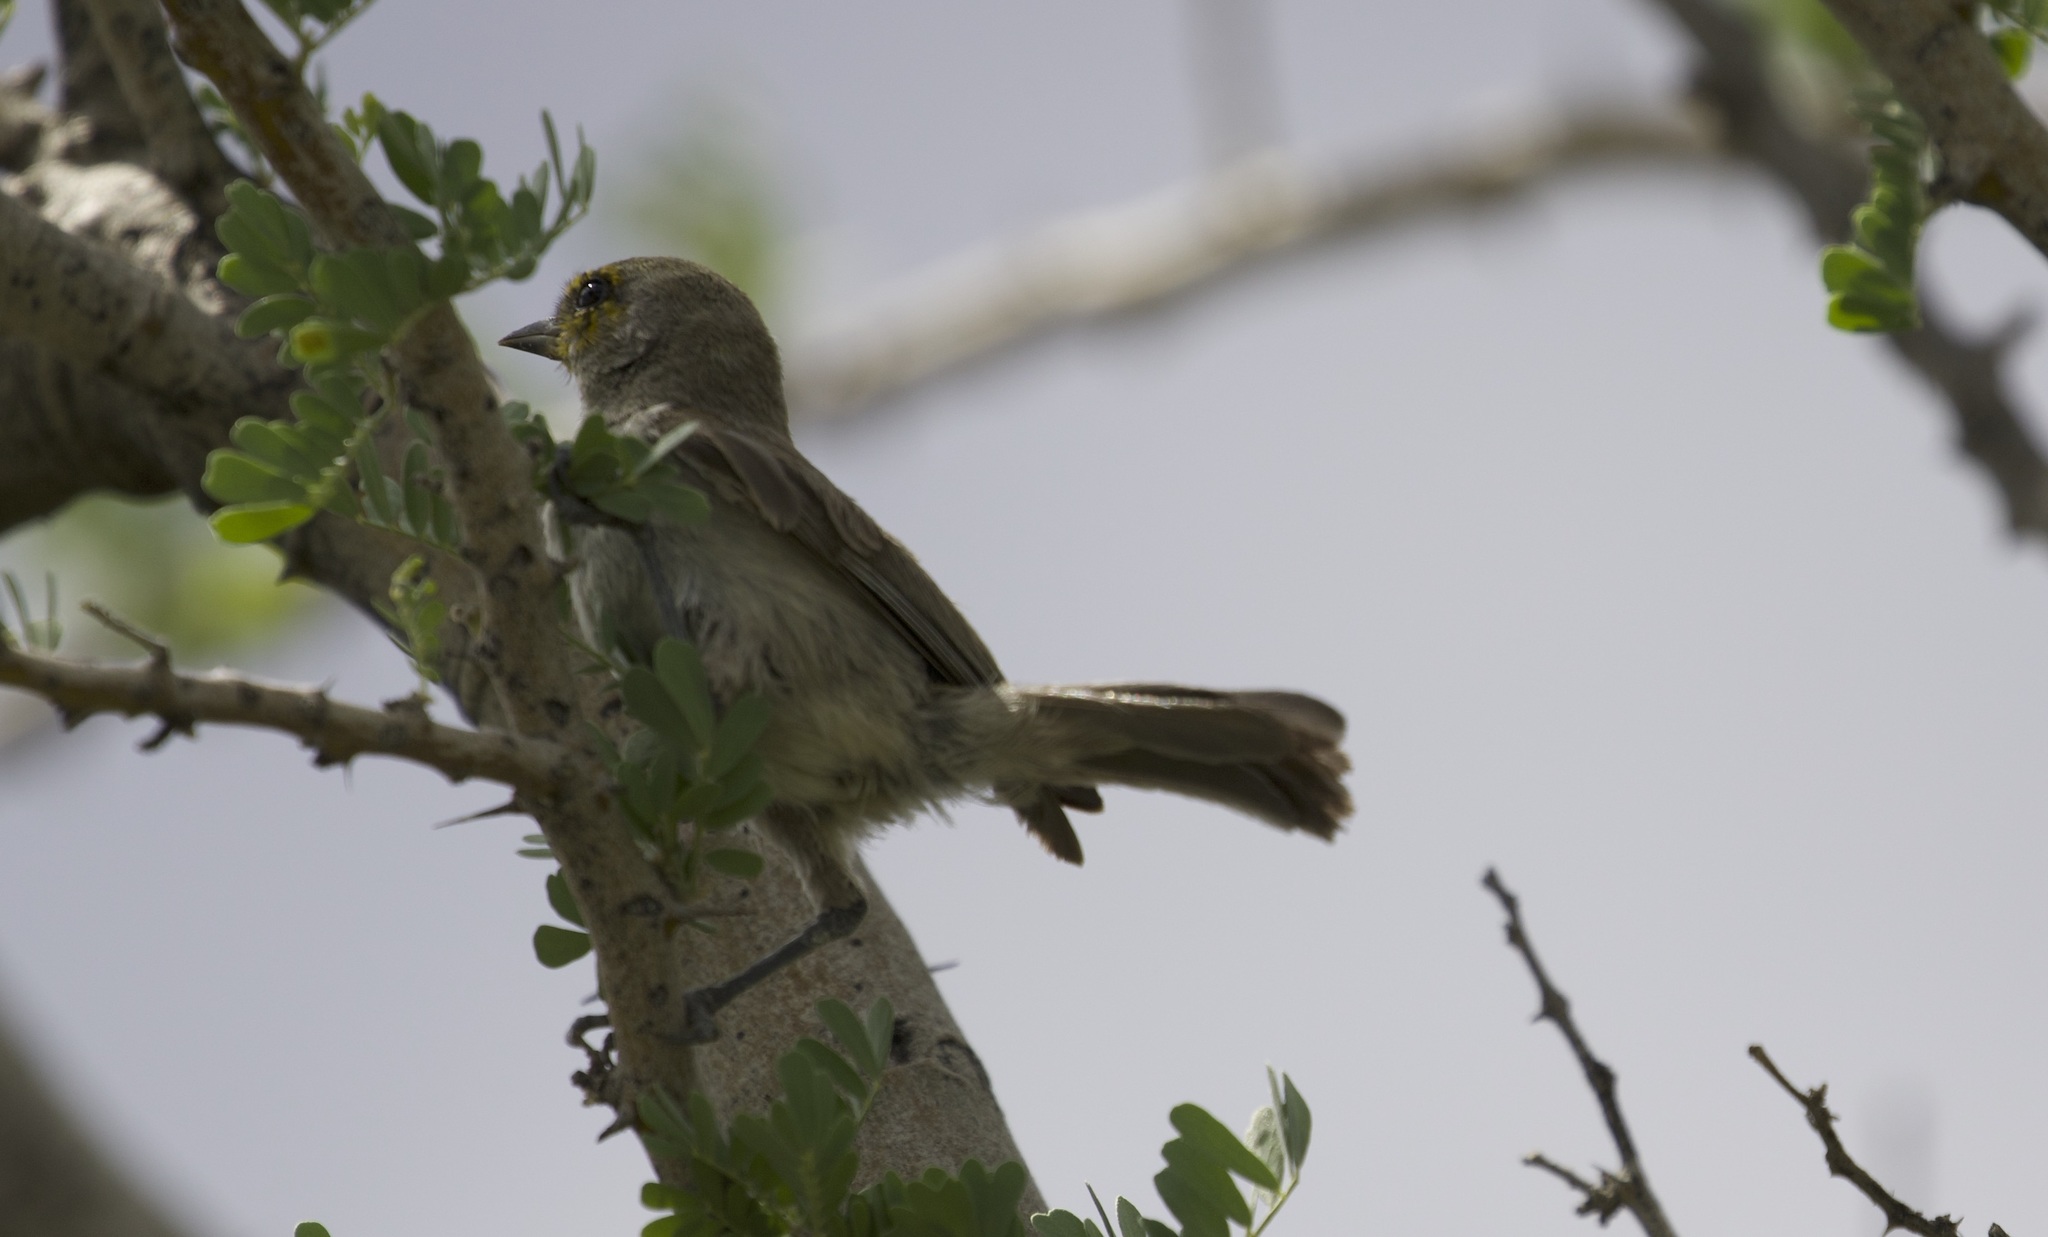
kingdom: Animalia
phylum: Chordata
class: Aves
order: Passeriformes
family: Remizidae
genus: Auriparus
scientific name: Auriparus flaviceps
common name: Verdin
